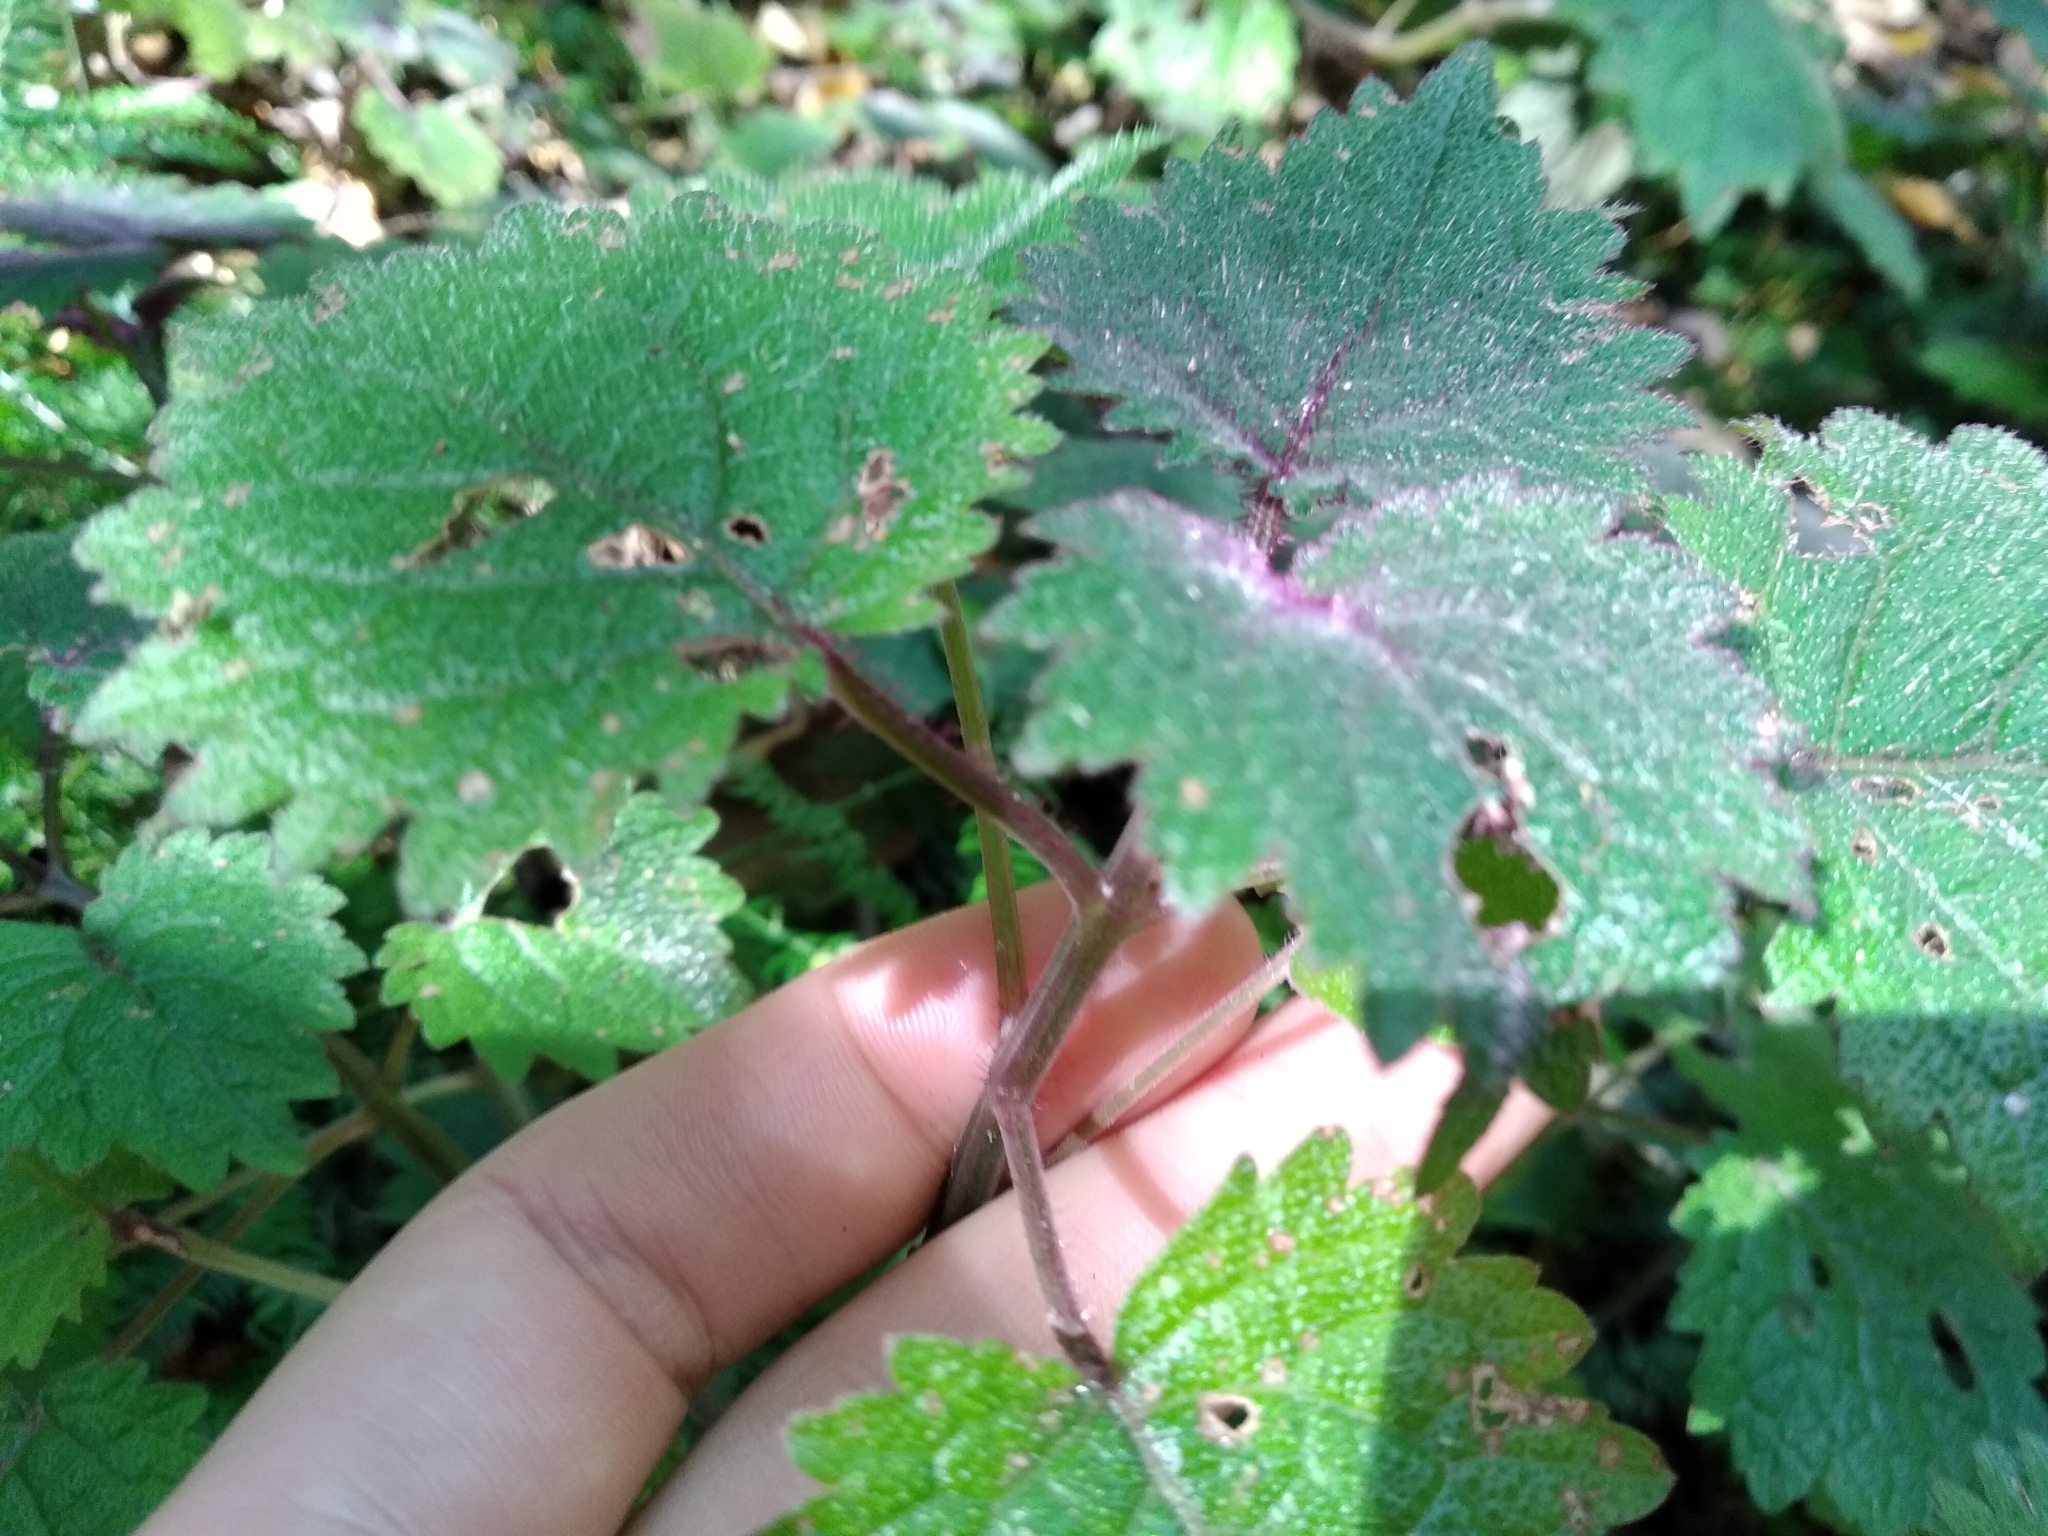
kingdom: Plantae
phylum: Tracheophyta
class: Magnoliopsida
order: Lamiales
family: Lamiaceae
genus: Plectranthus
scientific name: Plectranthus swynnertonii
